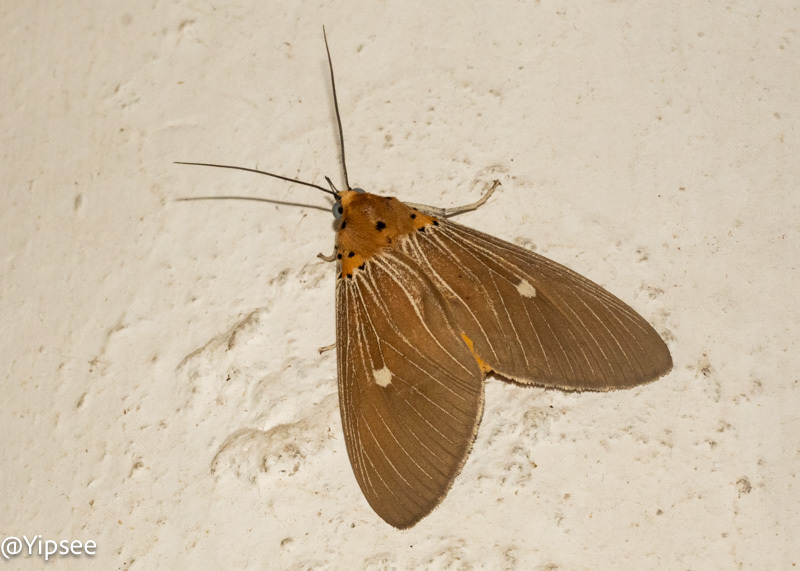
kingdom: Animalia
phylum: Arthropoda
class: Insecta
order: Lepidoptera
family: Erebidae
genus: Asota
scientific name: Asota caricae
